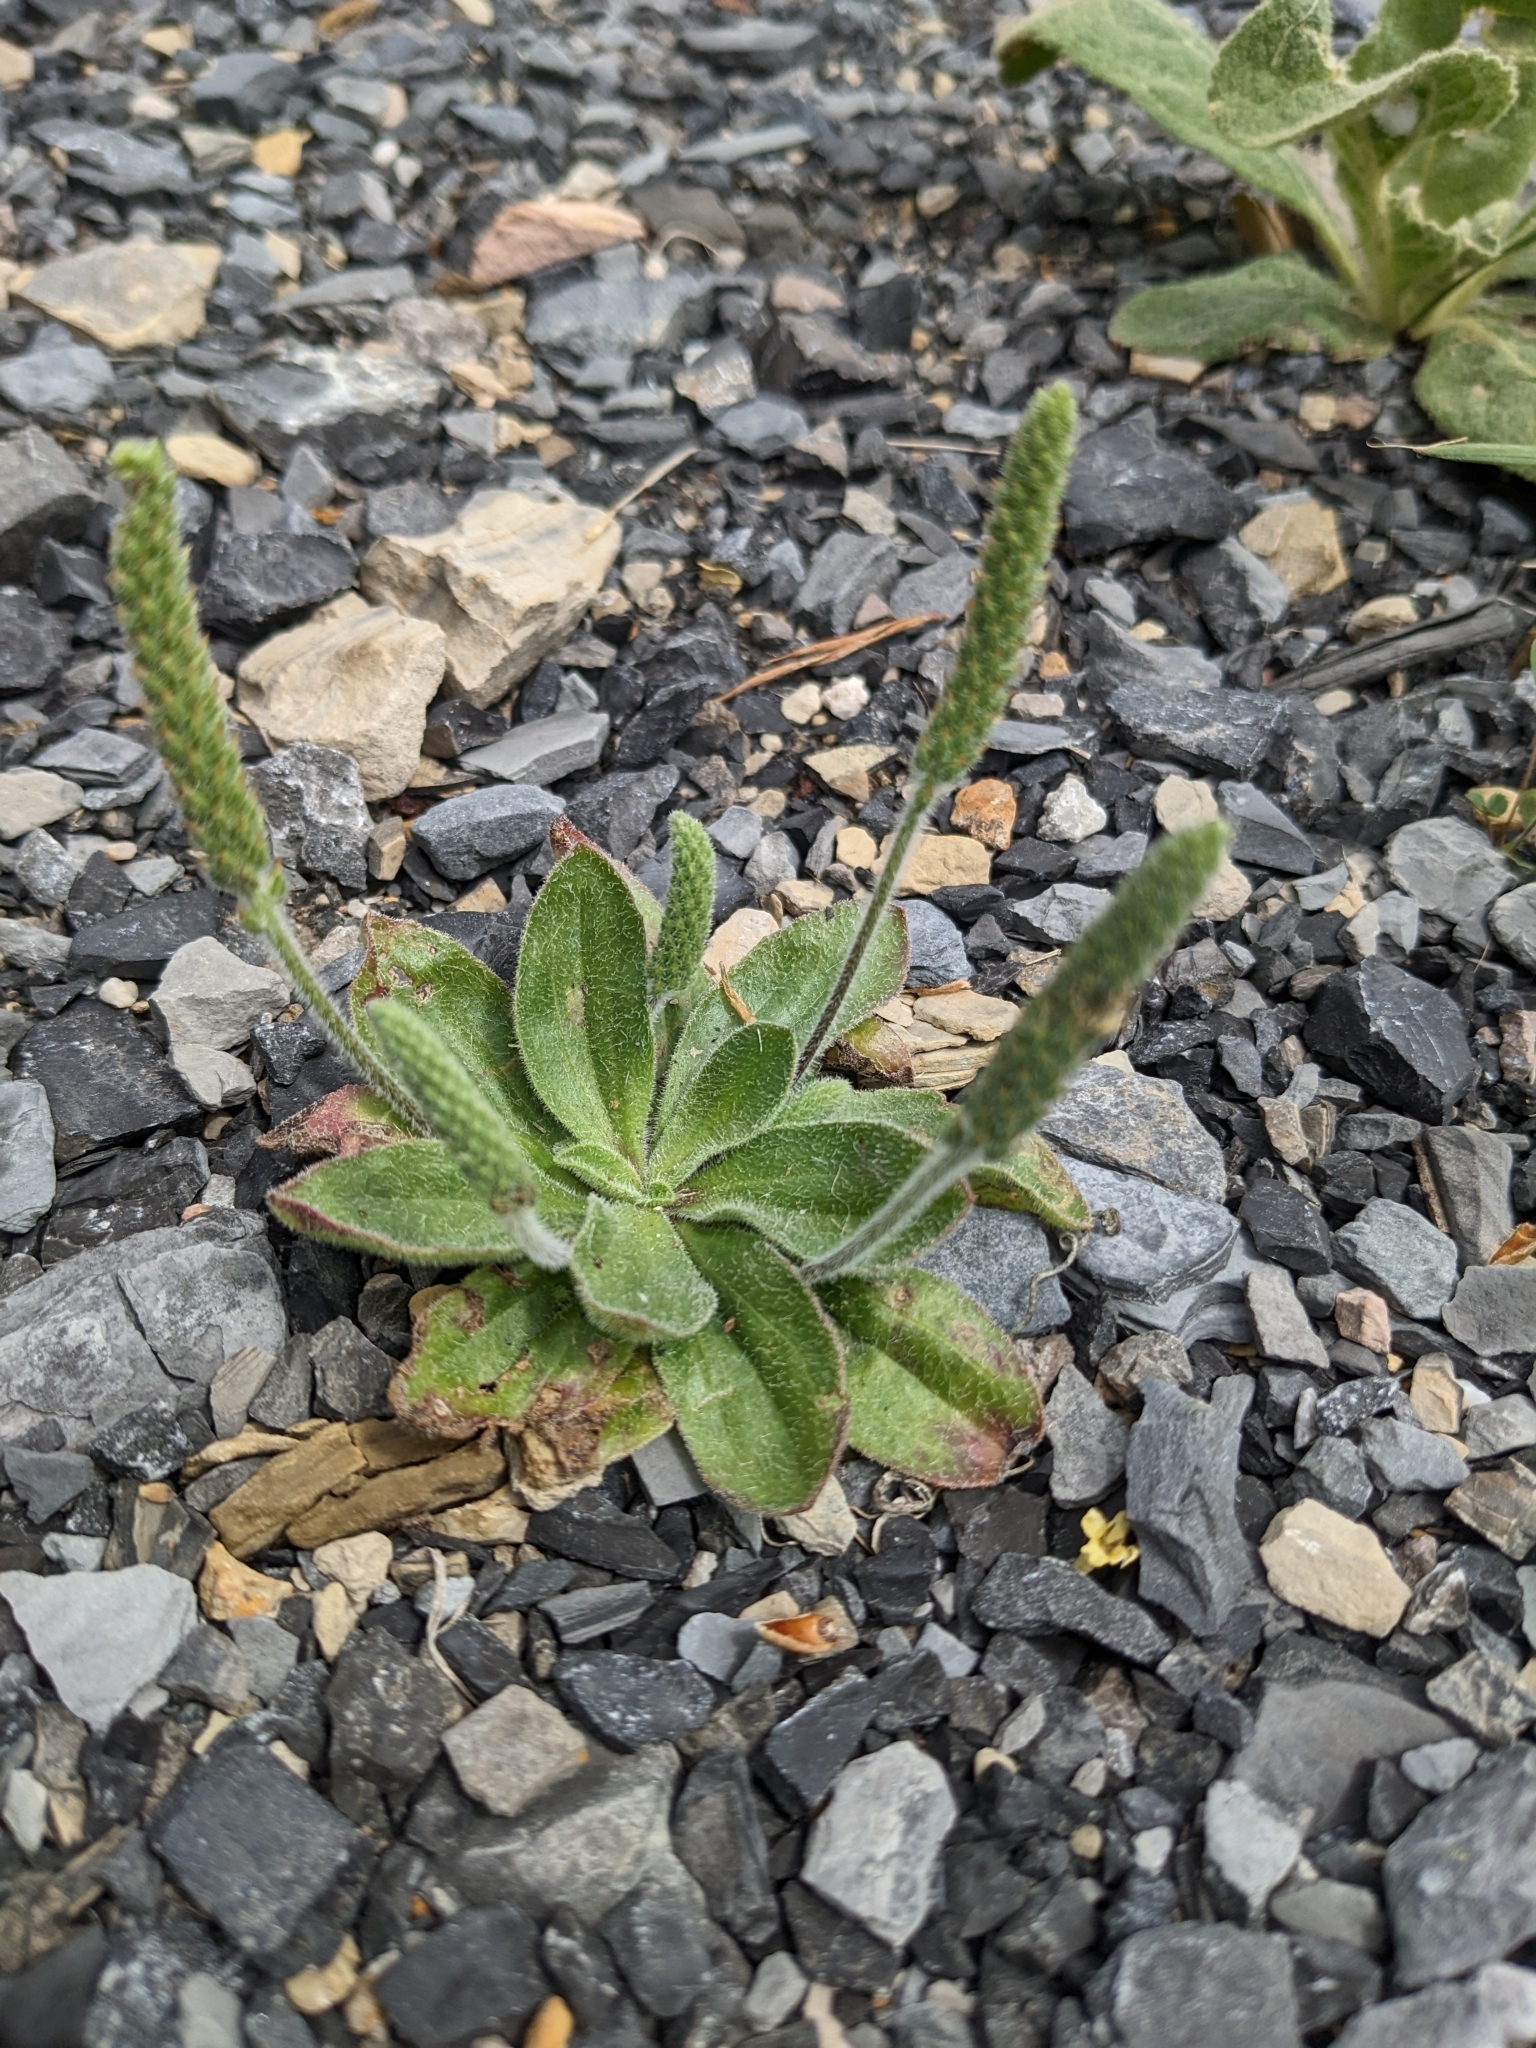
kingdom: Plantae
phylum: Tracheophyta
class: Magnoliopsida
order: Lamiales
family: Plantaginaceae
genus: Plantago
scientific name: Plantago virginica
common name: Hoary plantain
